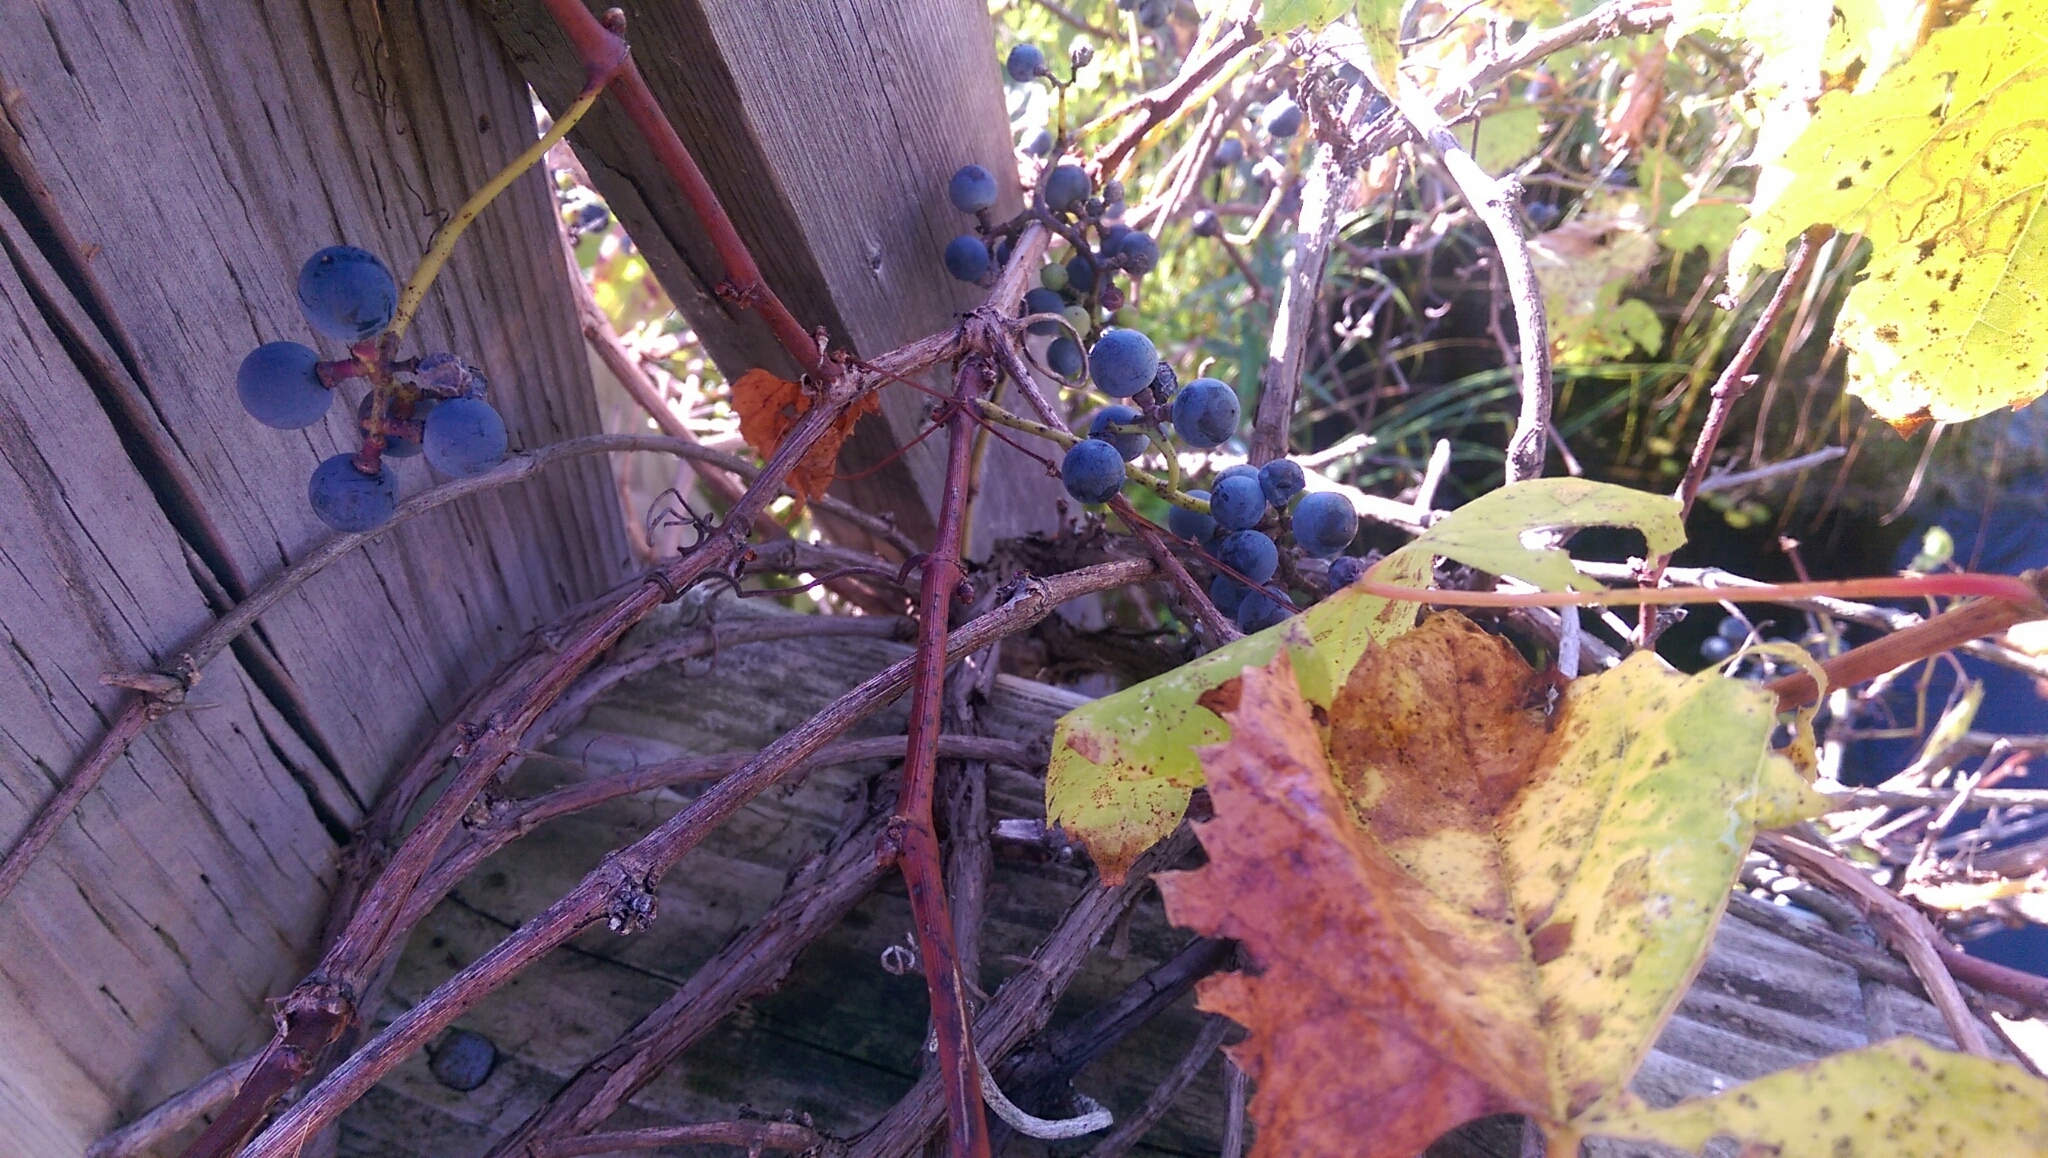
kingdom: Plantae
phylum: Tracheophyta
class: Magnoliopsida
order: Vitales
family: Vitaceae
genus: Vitis
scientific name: Vitis riparia
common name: Frost grape
